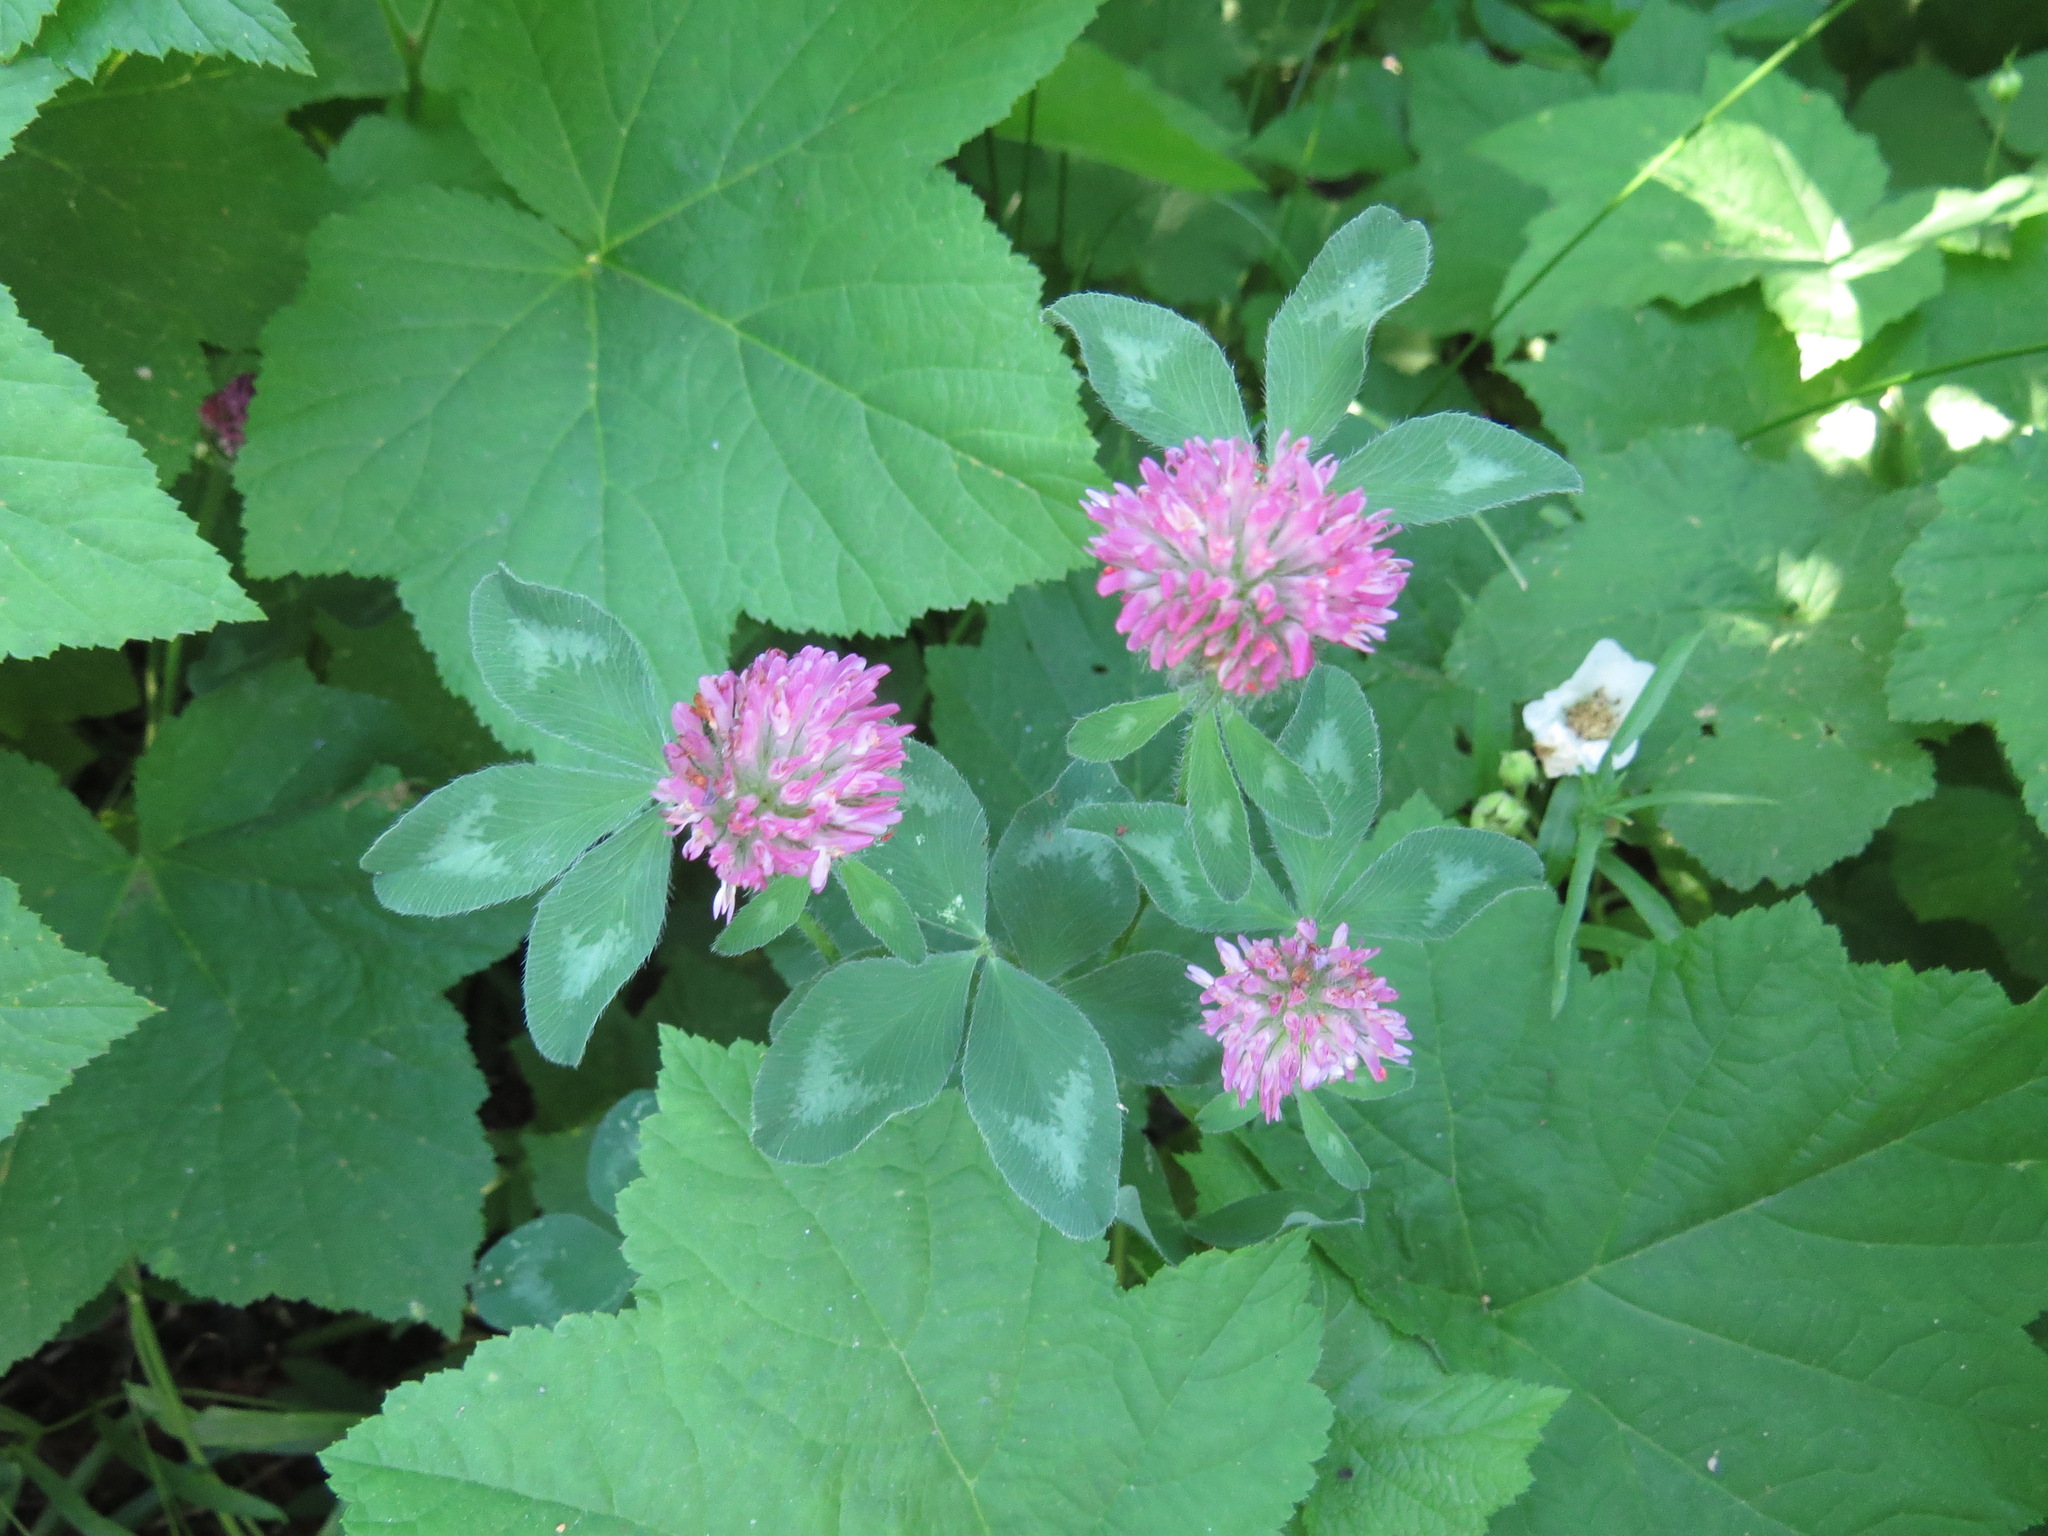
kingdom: Plantae
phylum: Tracheophyta
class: Magnoliopsida
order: Fabales
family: Fabaceae
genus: Trifolium
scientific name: Trifolium pratense
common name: Red clover
